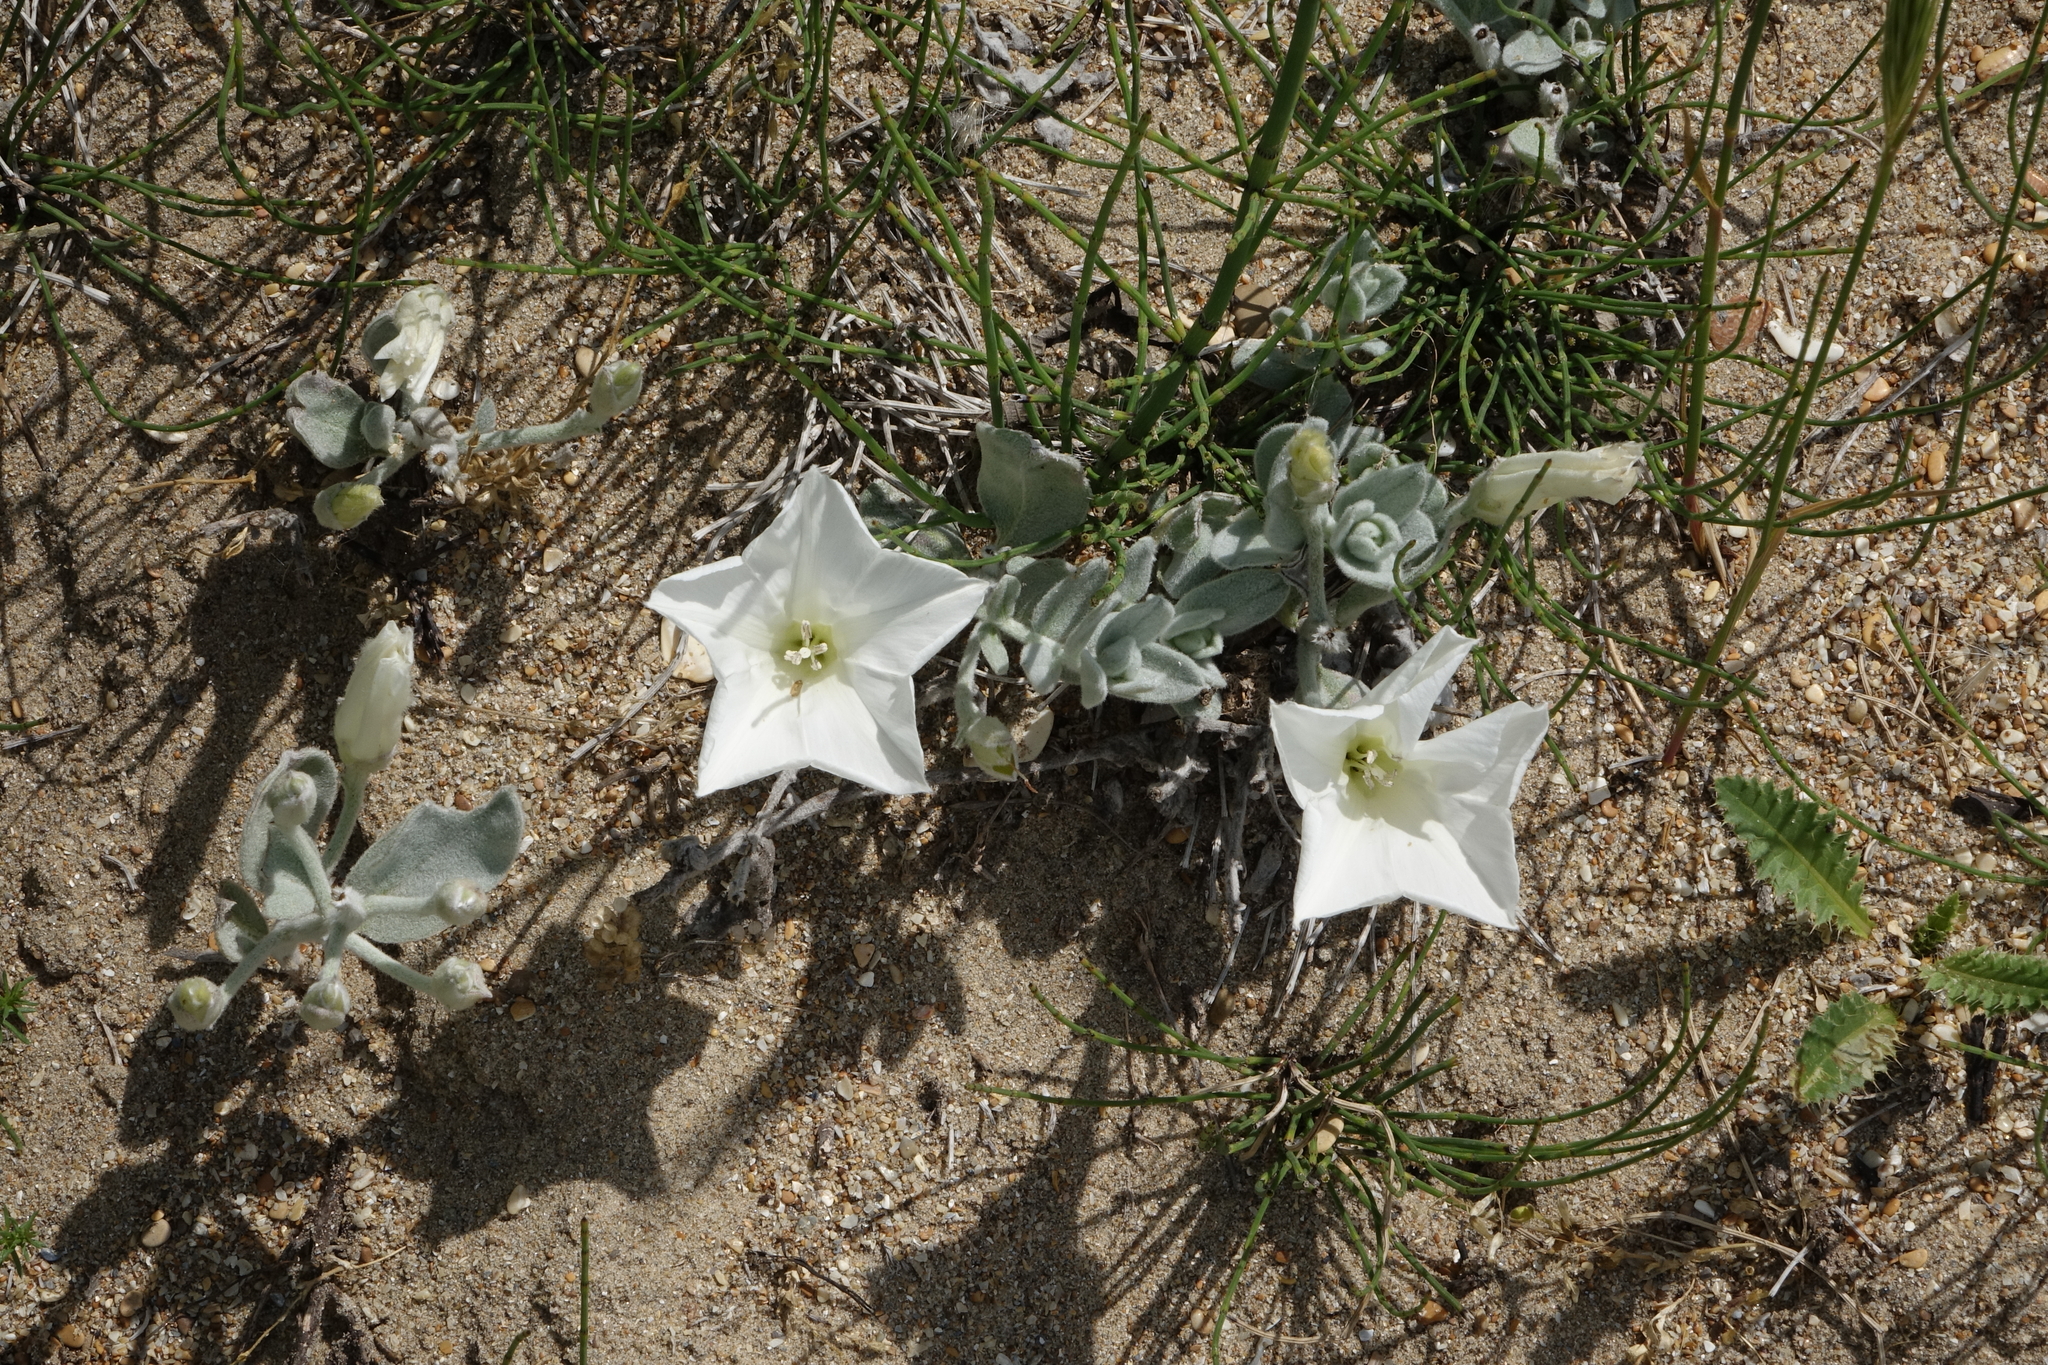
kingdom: Plantae
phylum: Tracheophyta
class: Magnoliopsida
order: Solanales
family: Convolvulaceae
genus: Convolvulus
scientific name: Convolvulus persicus
